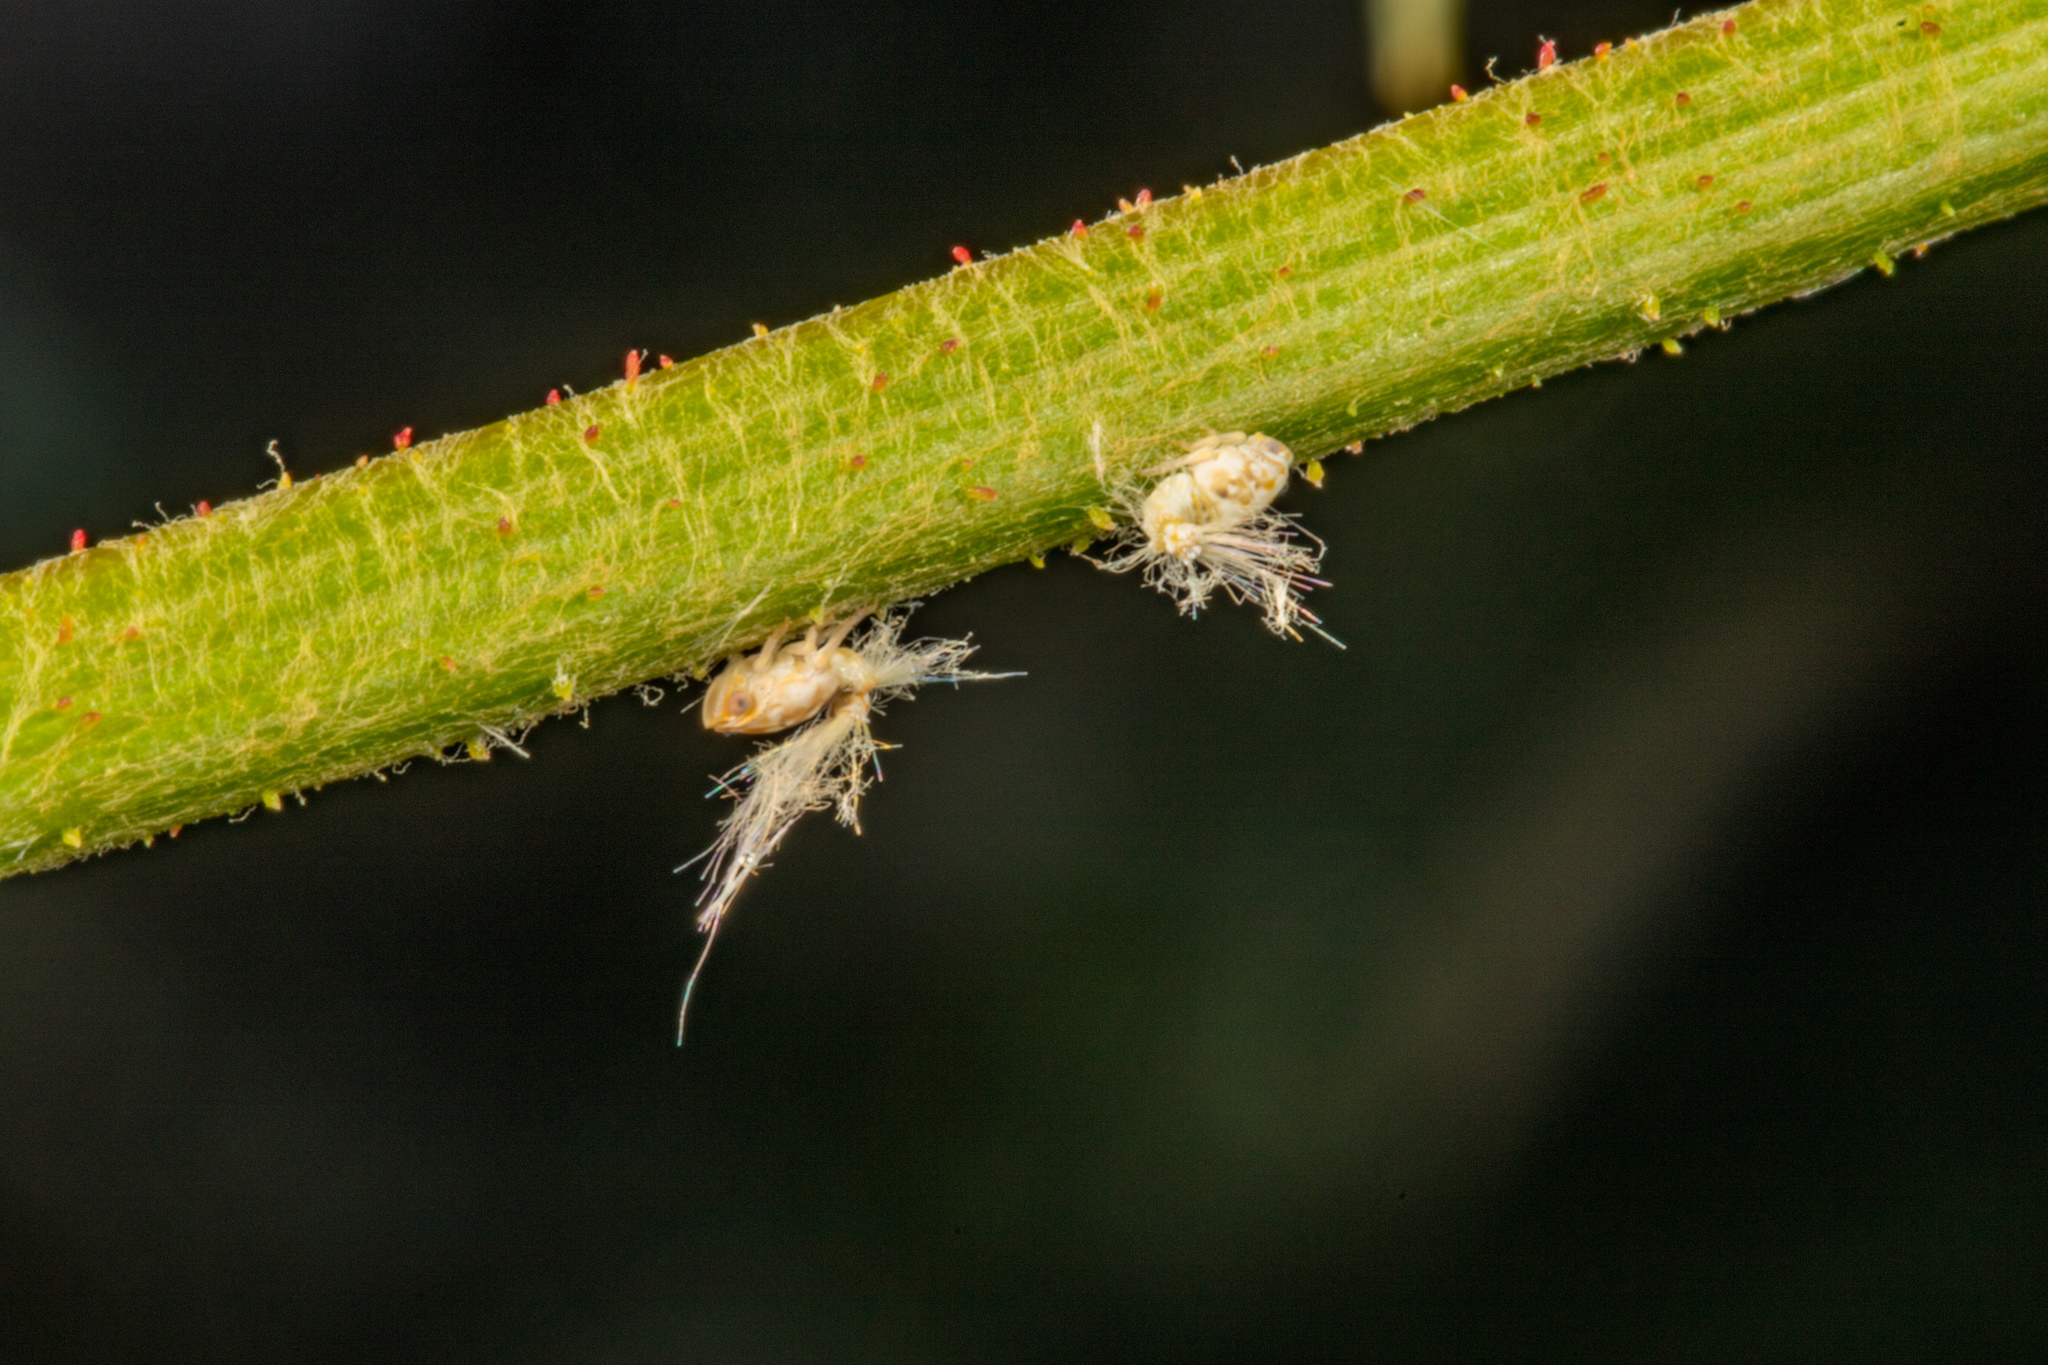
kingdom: Animalia
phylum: Arthropoda
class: Insecta
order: Hemiptera
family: Ricaniidae
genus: Scolypopa
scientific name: Scolypopa australis
